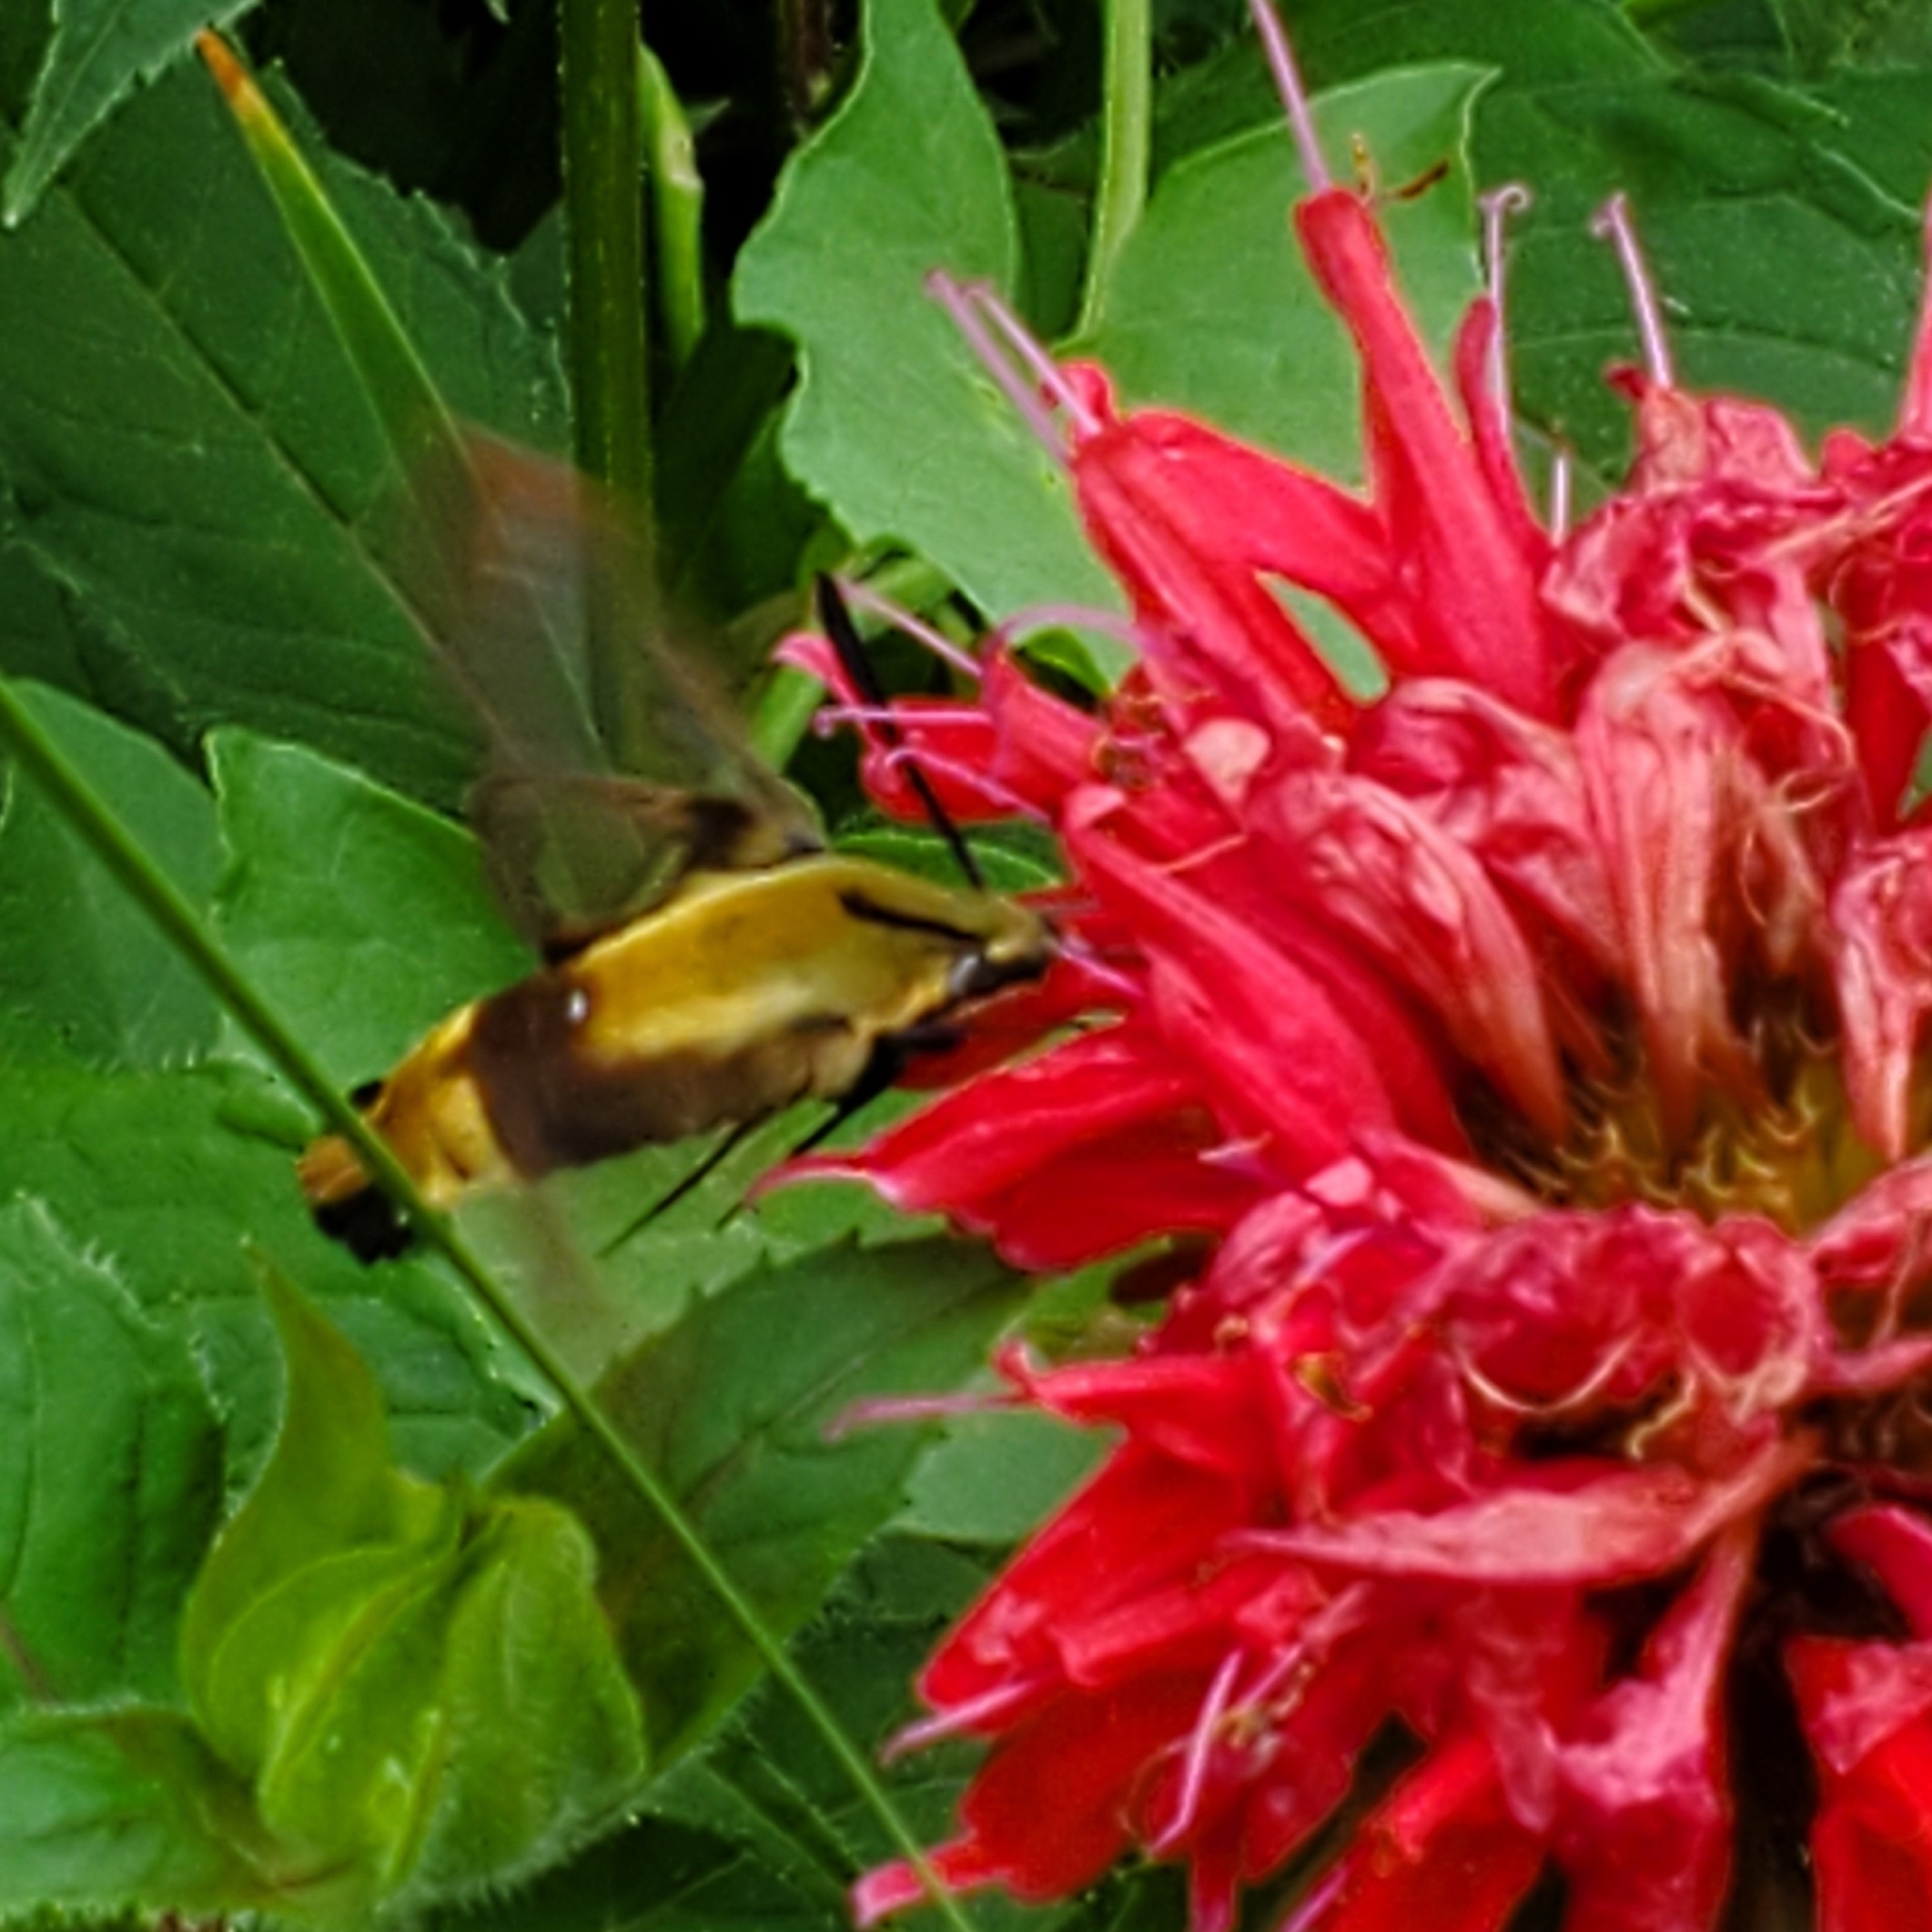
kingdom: Animalia
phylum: Arthropoda
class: Insecta
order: Lepidoptera
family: Sphingidae
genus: Hemaris
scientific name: Hemaris diffinis
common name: Bumblebee moth
